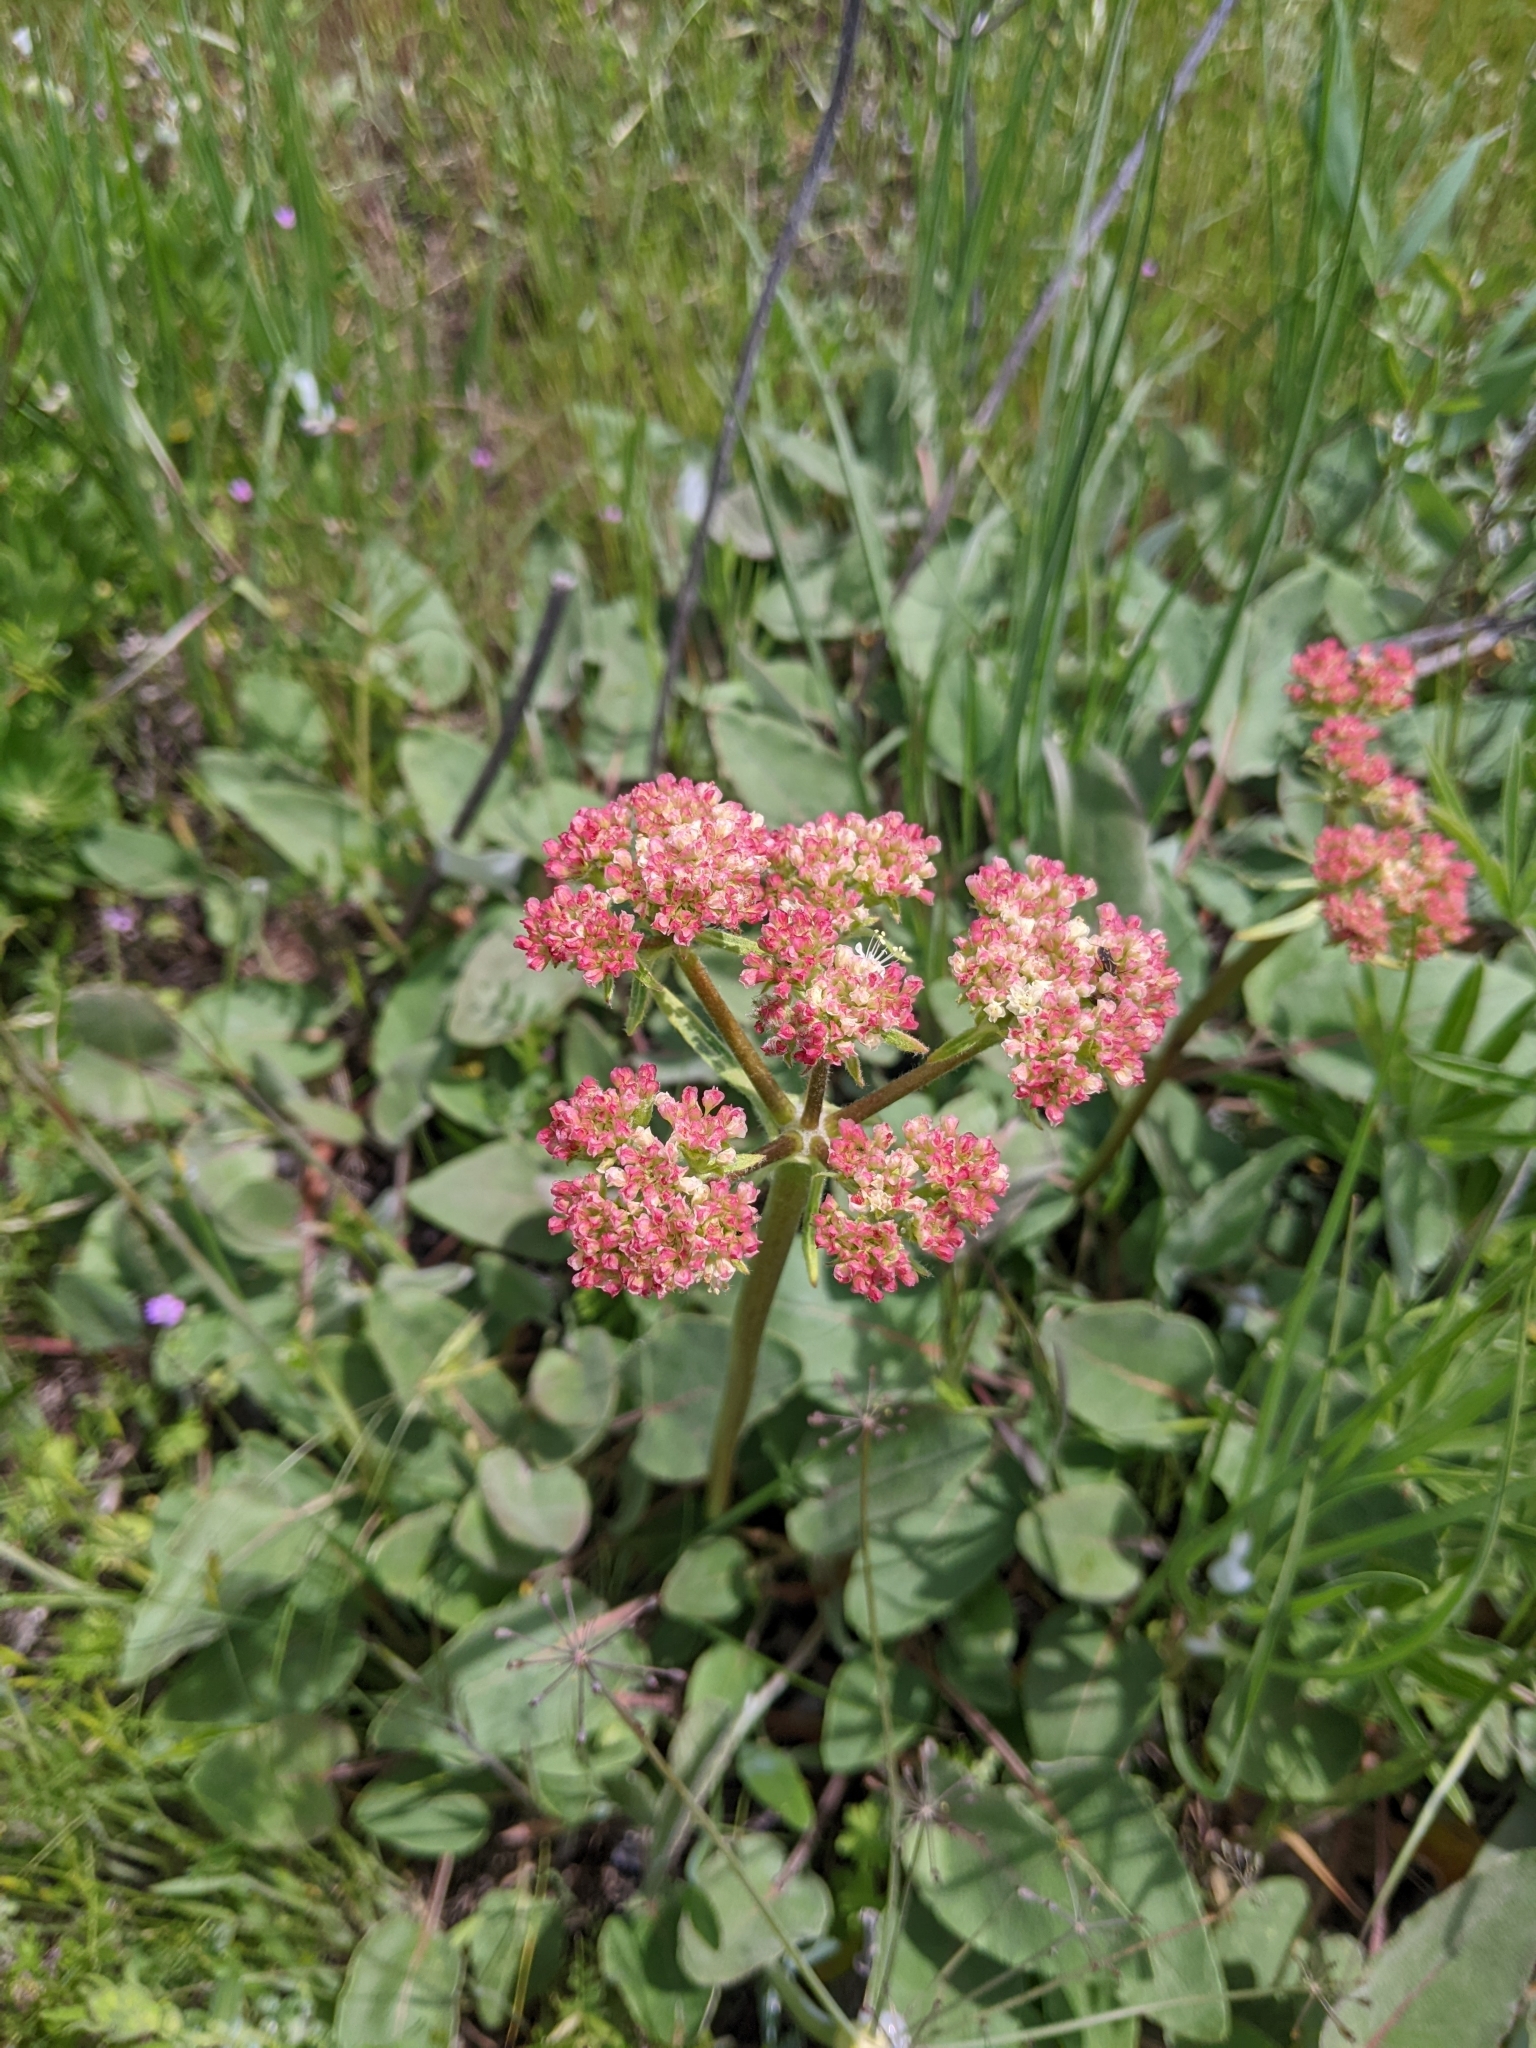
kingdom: Plantae
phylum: Tracheophyta
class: Magnoliopsida
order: Caryophyllales
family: Polygonaceae
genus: Eriogonum
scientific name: Eriogonum compositum
